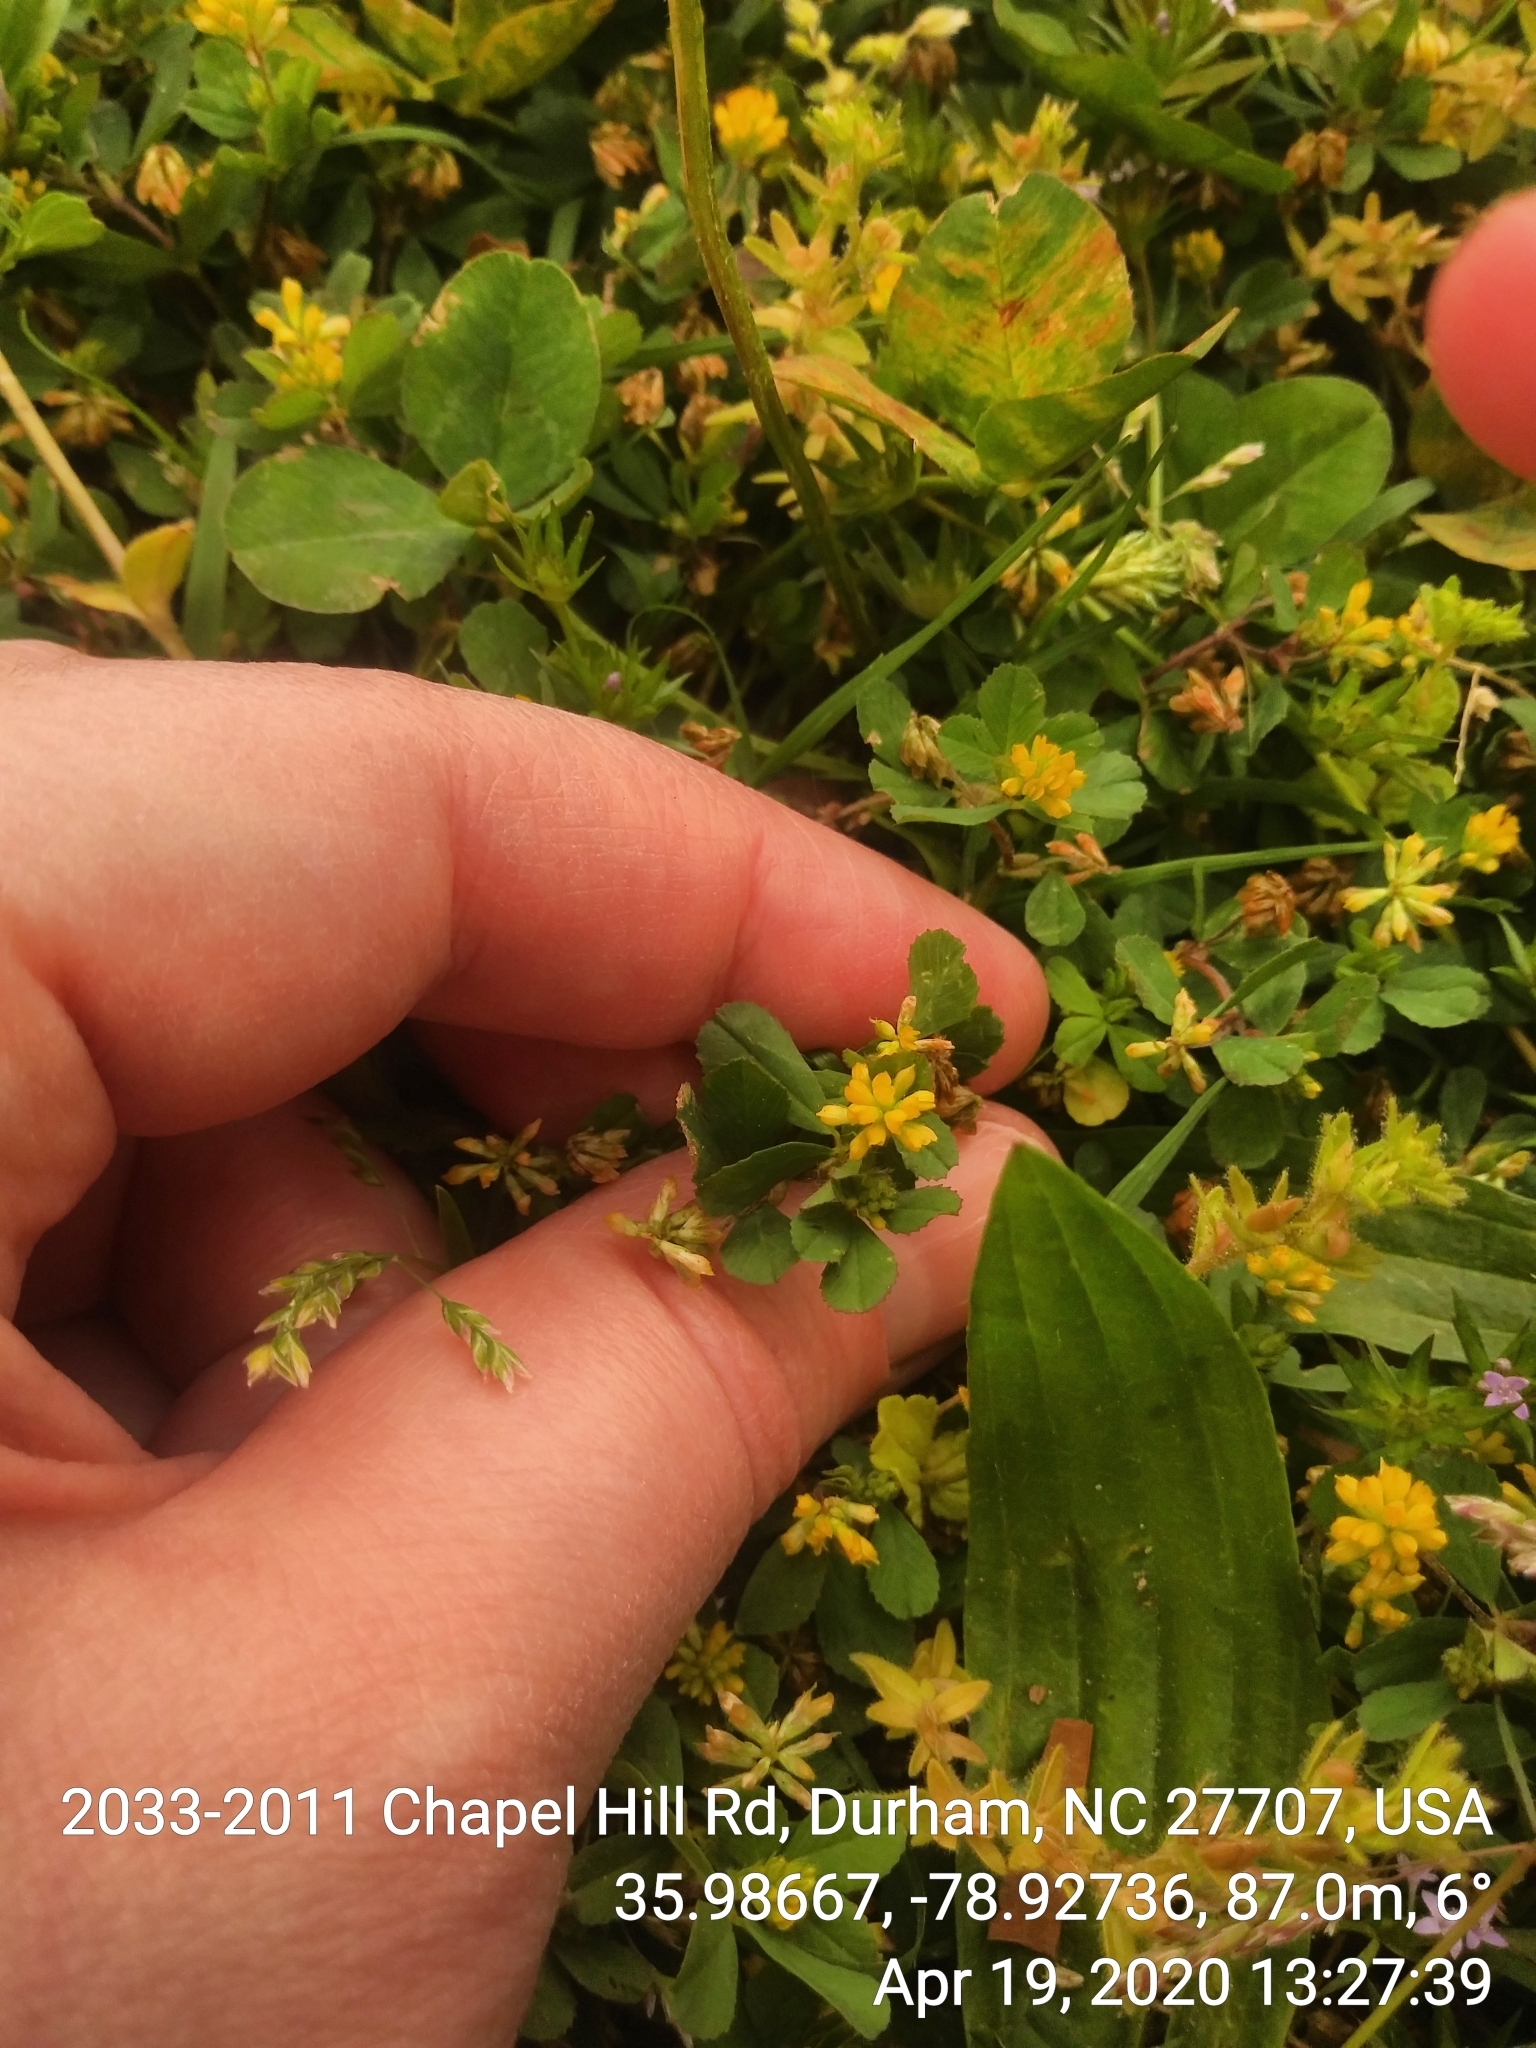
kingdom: Plantae
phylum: Tracheophyta
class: Magnoliopsida
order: Fabales
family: Fabaceae
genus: Trifolium
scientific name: Trifolium dubium
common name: Suckling clover
